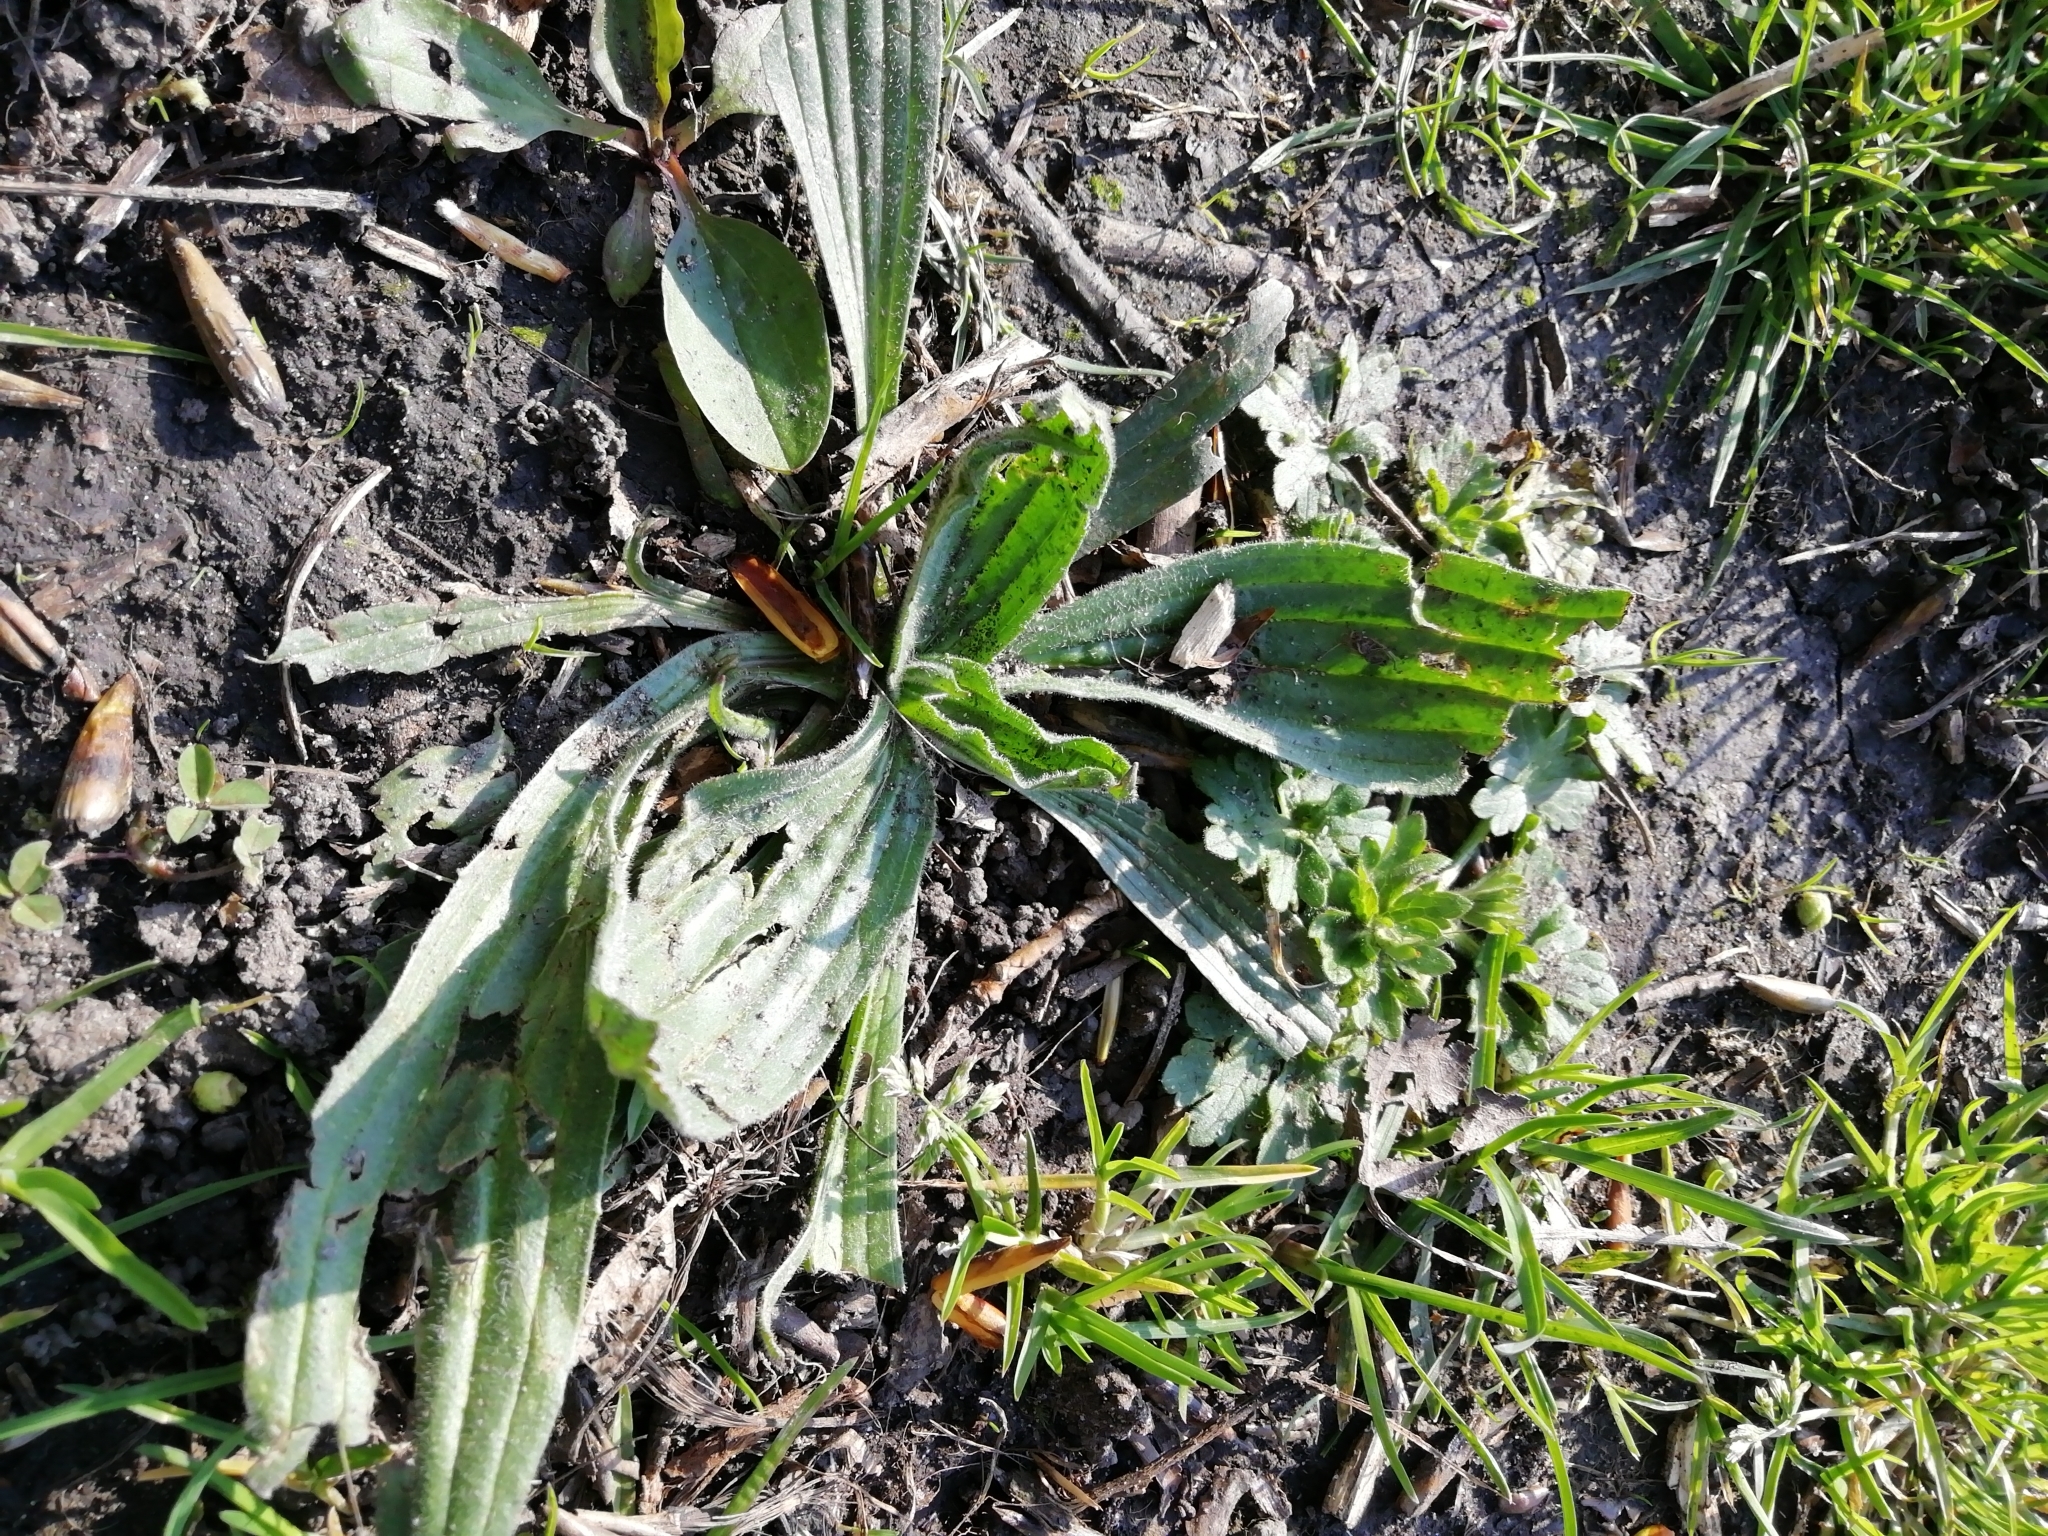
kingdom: Plantae
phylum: Tracheophyta
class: Magnoliopsida
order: Lamiales
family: Plantaginaceae
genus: Plantago
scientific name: Plantago lanceolata
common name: Ribwort plantain
